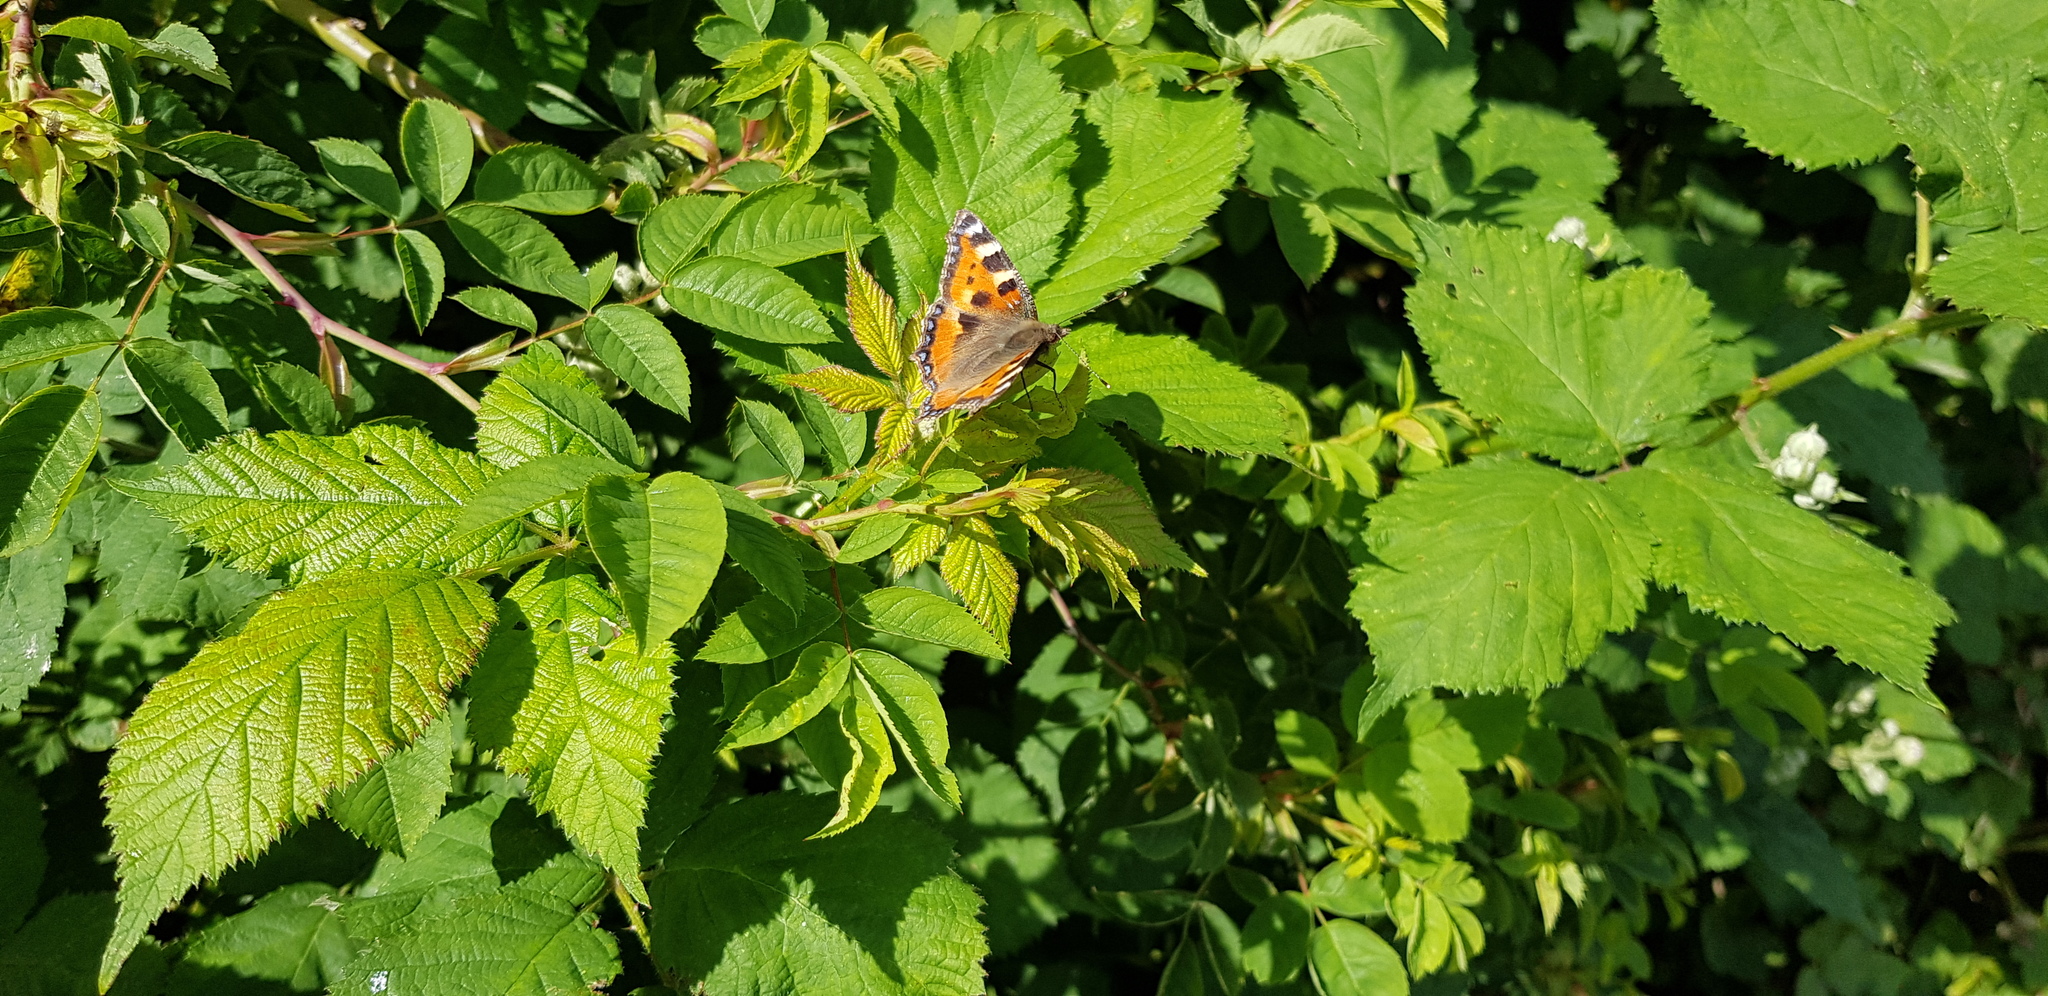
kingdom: Animalia
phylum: Arthropoda
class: Insecta
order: Lepidoptera
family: Nymphalidae
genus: Aglais
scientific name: Aglais urticae
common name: Small tortoiseshell
